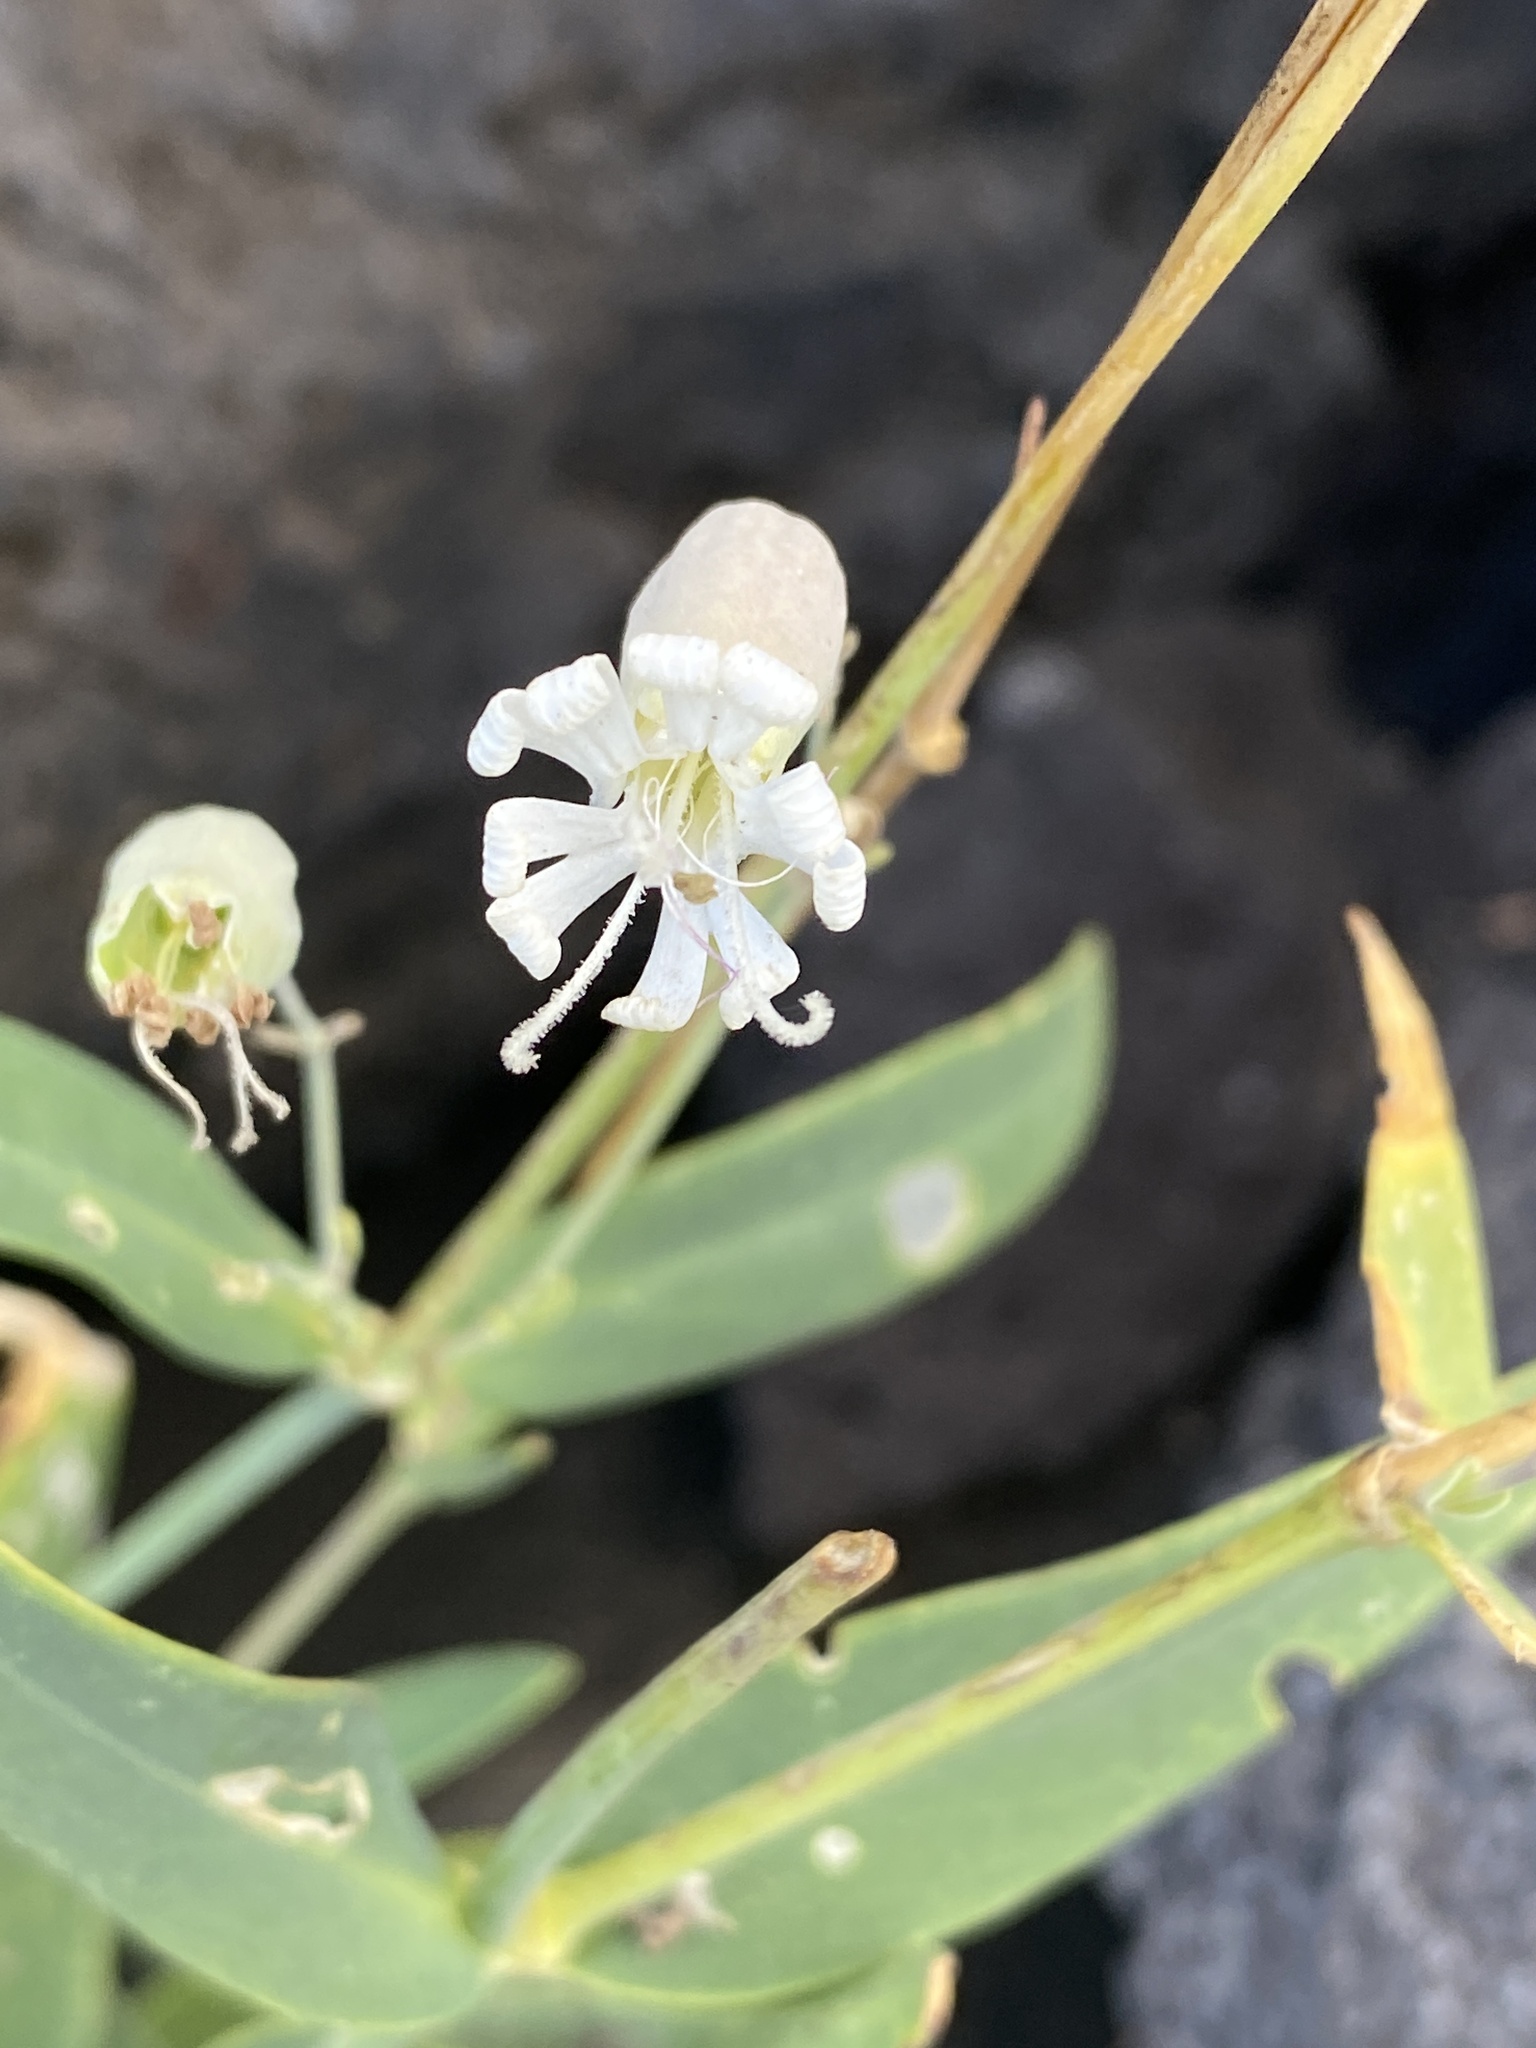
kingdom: Plantae
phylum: Tracheophyta
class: Magnoliopsida
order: Caryophyllales
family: Caryophyllaceae
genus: Silene
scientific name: Silene vulgaris
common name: Bladder campion
